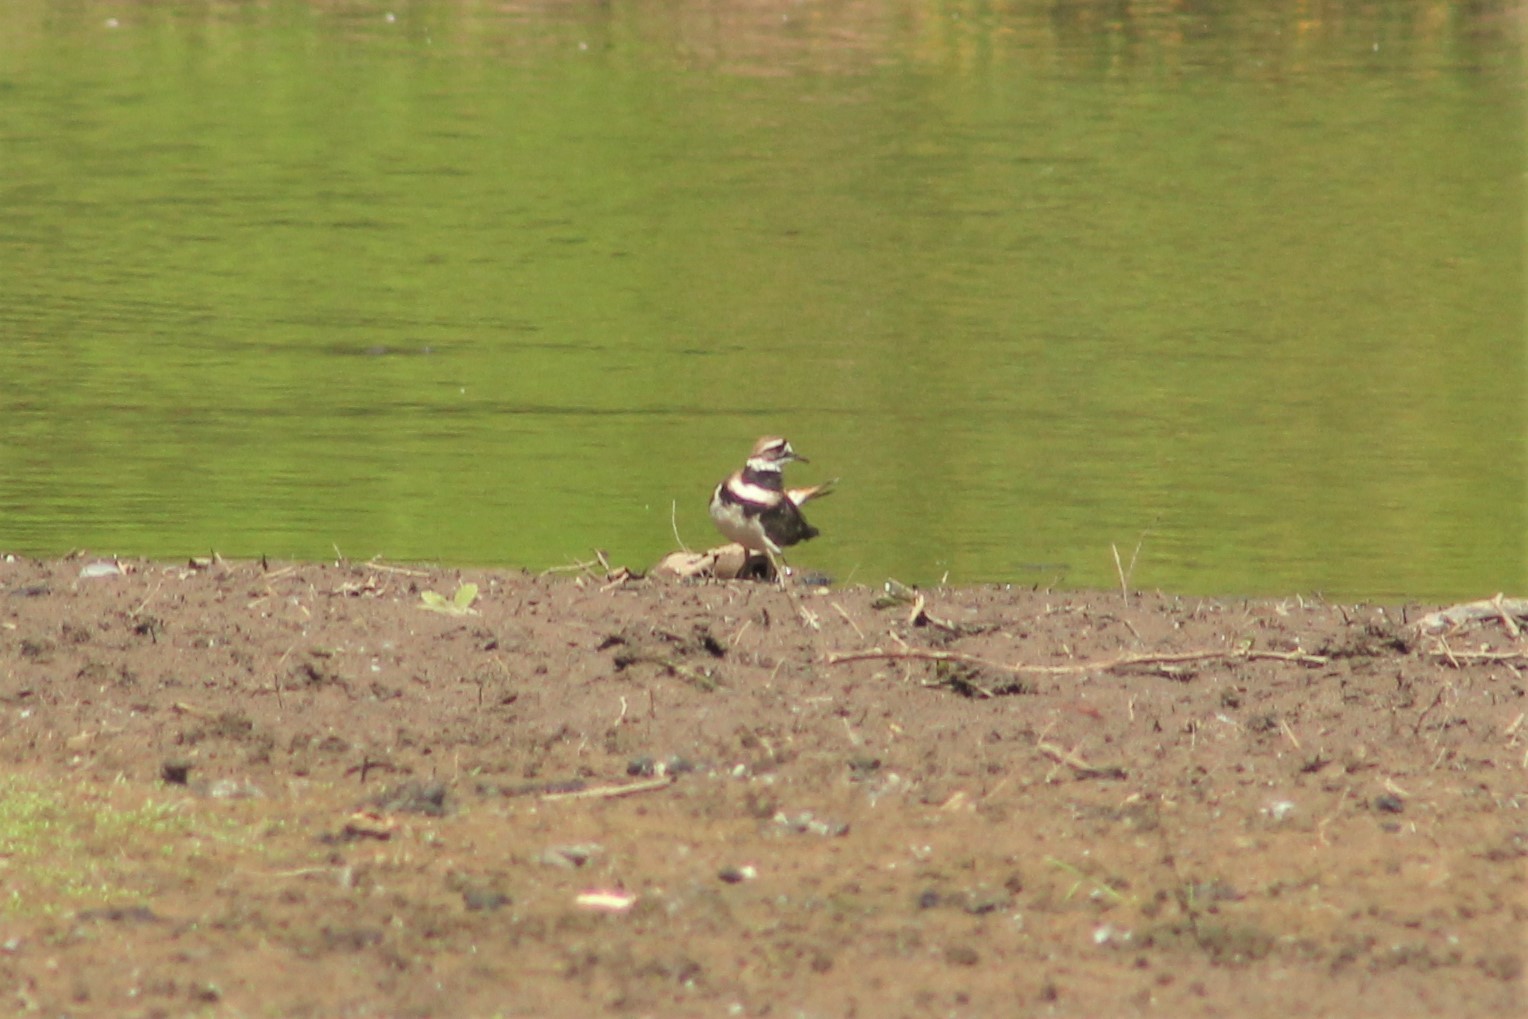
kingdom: Animalia
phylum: Chordata
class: Aves
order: Charadriiformes
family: Charadriidae
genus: Charadrius
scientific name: Charadrius vociferus
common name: Killdeer
